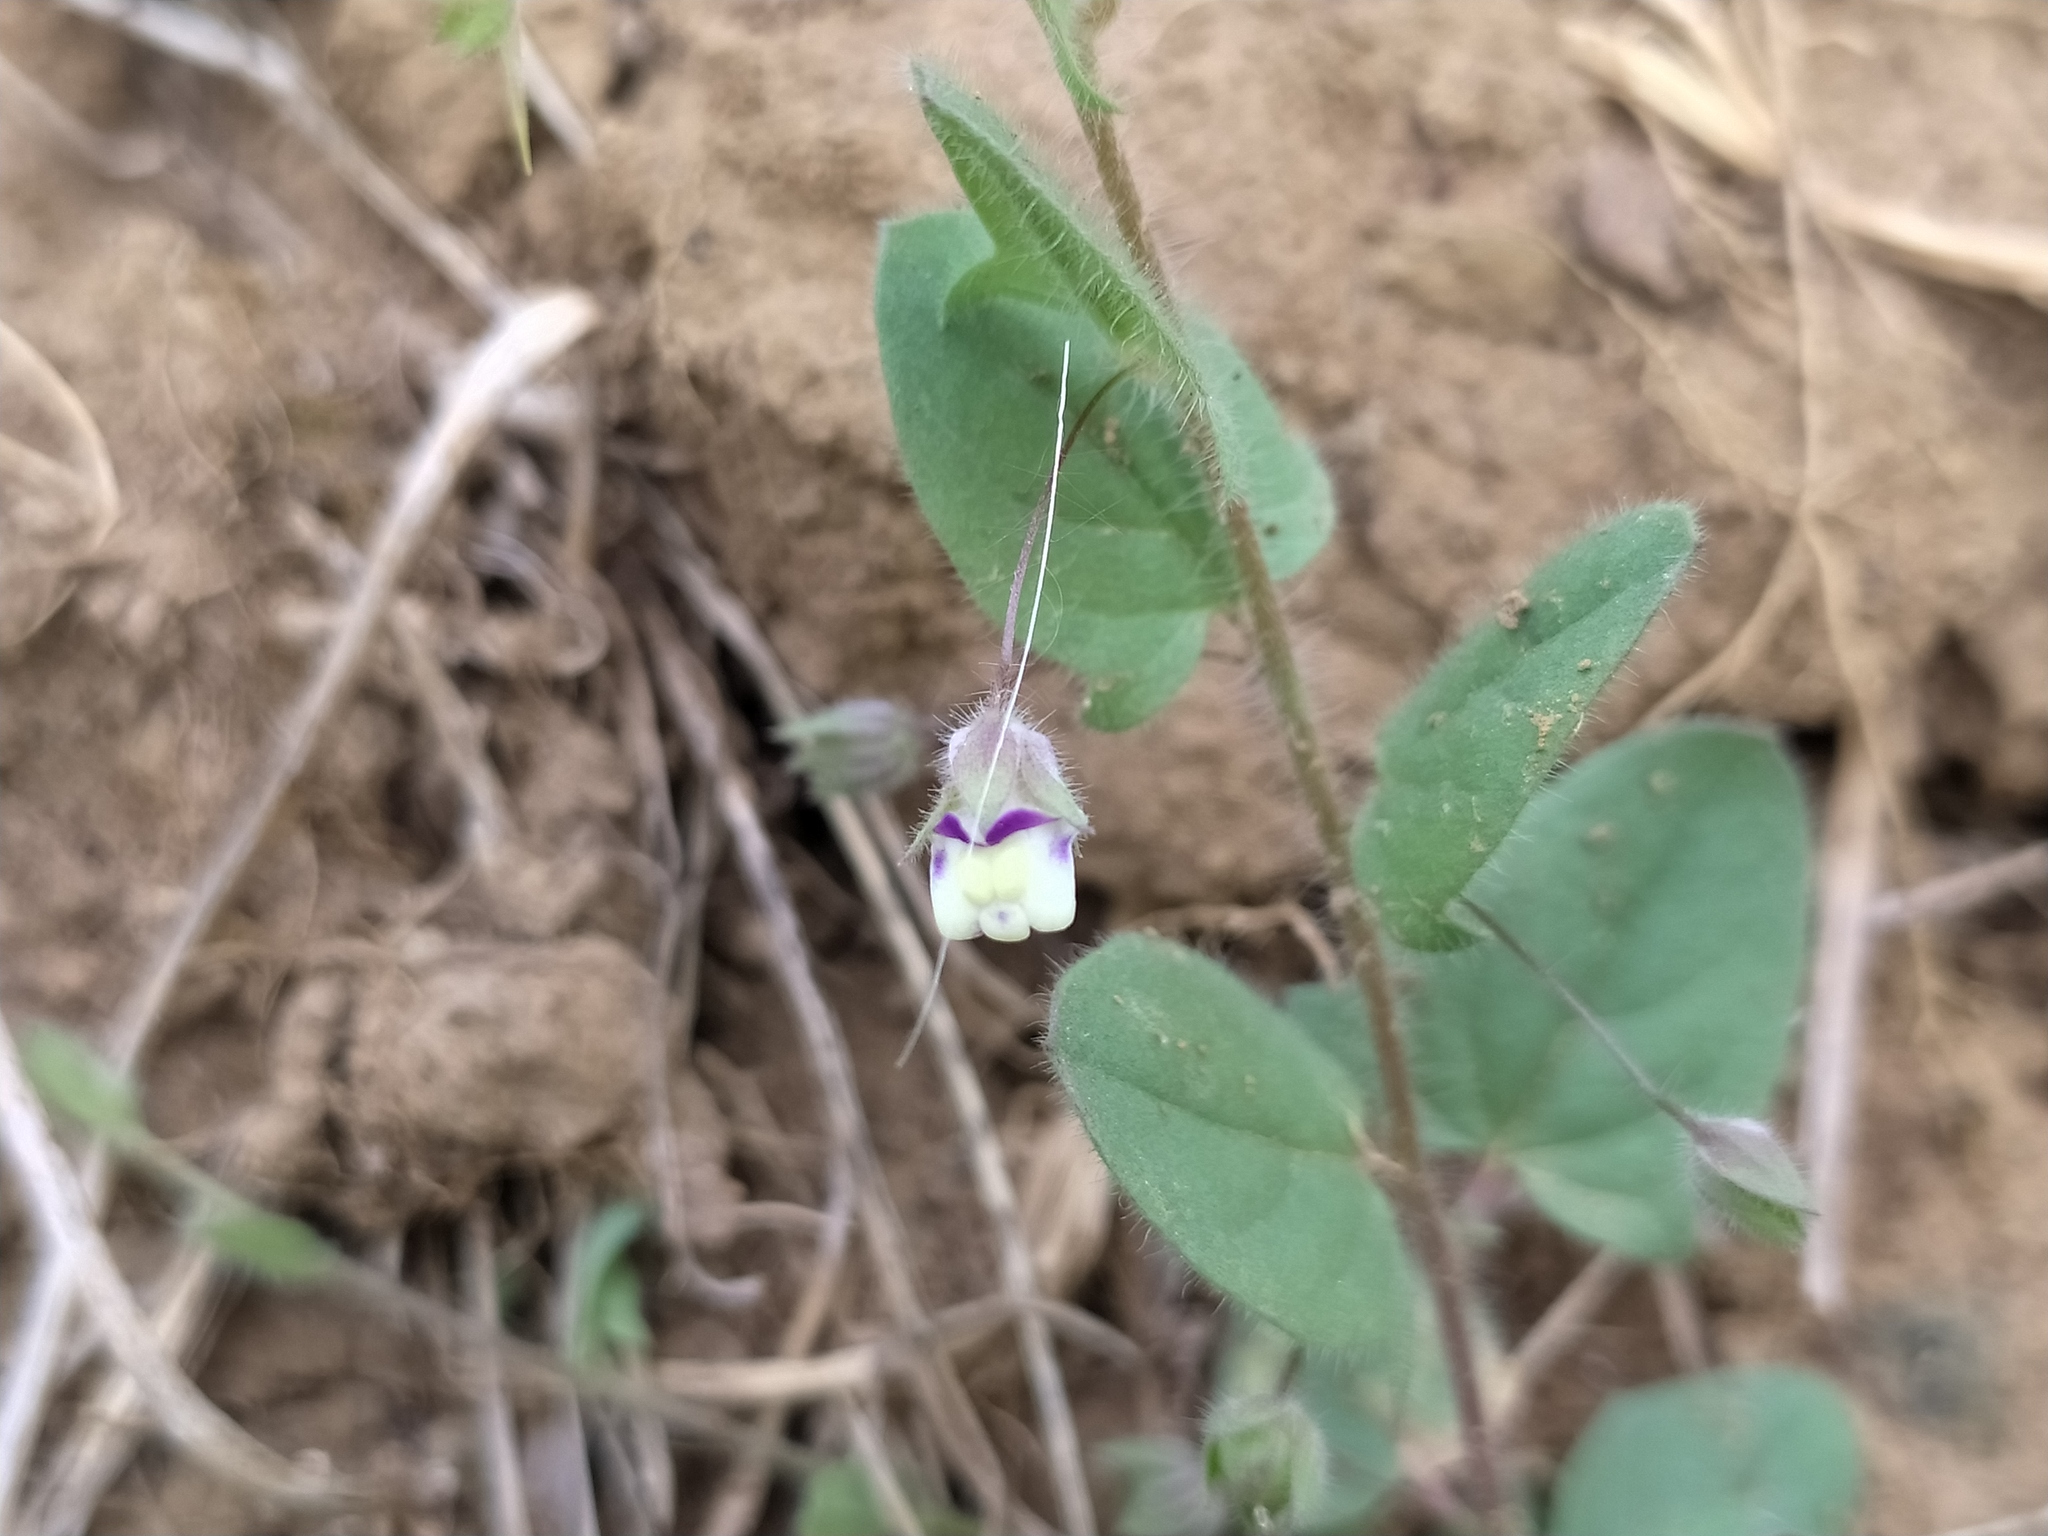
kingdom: Plantae
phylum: Tracheophyta
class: Magnoliopsida
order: Lamiales
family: Plantaginaceae
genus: Kickxia
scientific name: Kickxia elatine
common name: Sharp-leaved fluellen
